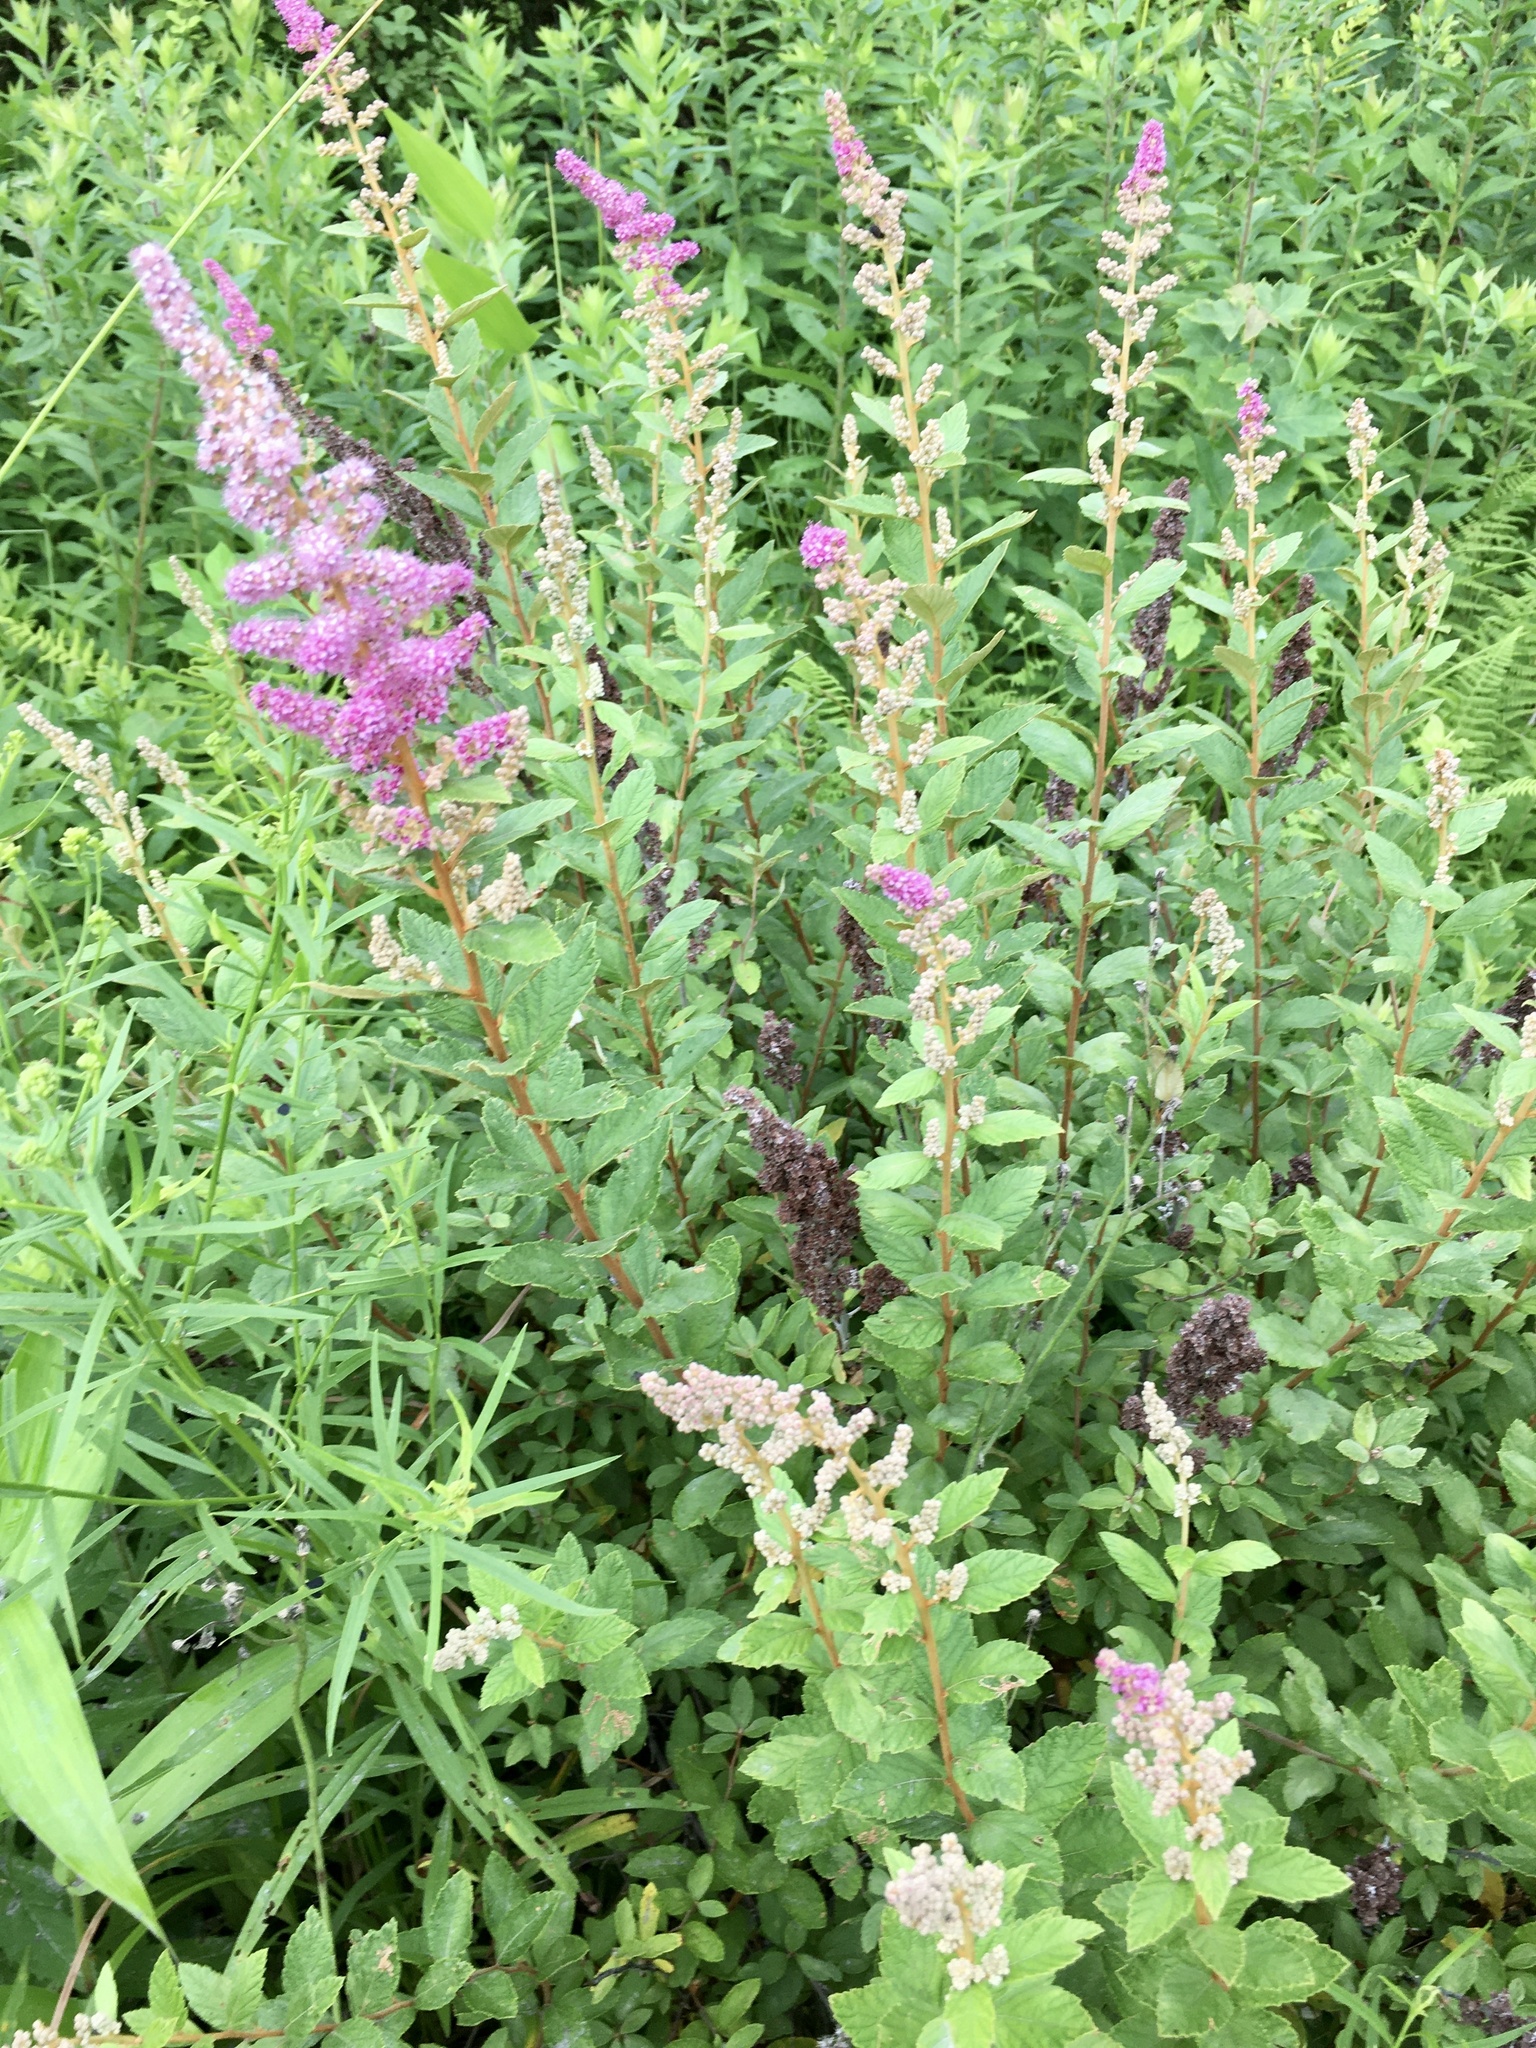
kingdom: Plantae
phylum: Tracheophyta
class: Magnoliopsida
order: Rosales
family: Rosaceae
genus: Spiraea
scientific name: Spiraea tomentosa
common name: Hardhack
